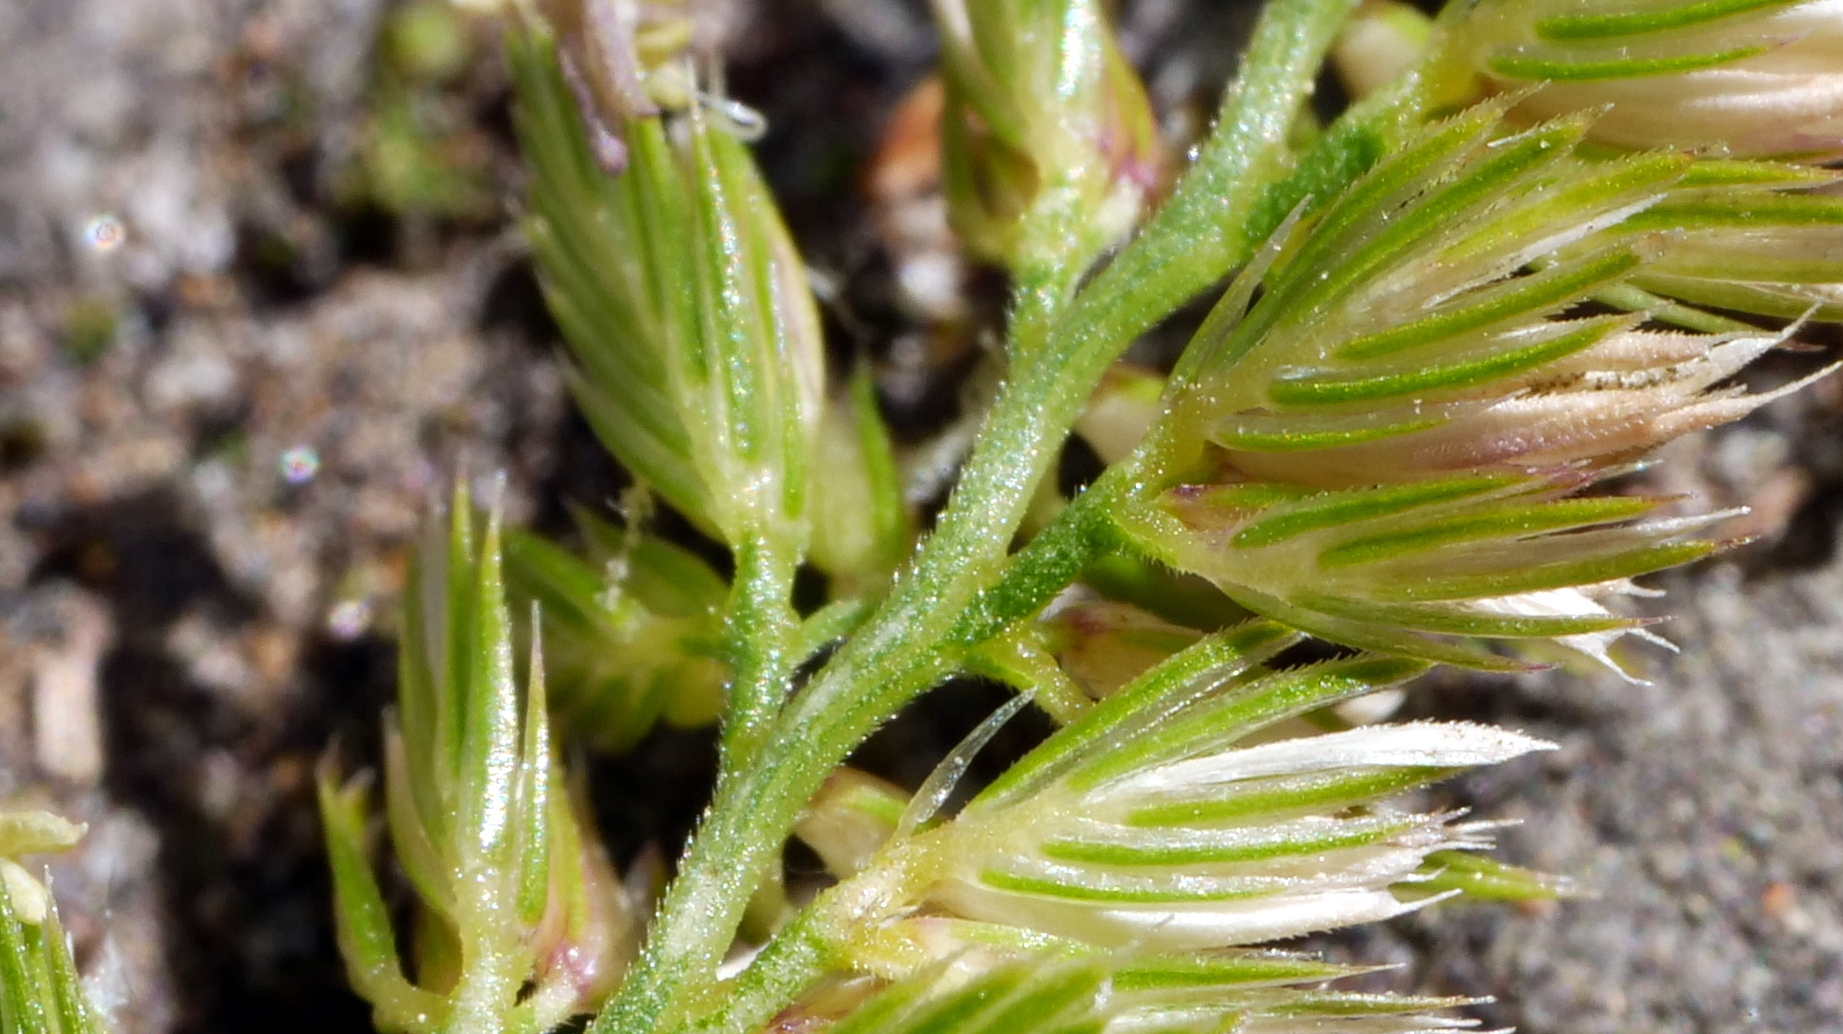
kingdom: Plantae
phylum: Tracheophyta
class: Liliopsida
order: Poales
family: Poaceae
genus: Cynosurus
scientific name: Cynosurus cristatus
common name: Crested dog's-tail
